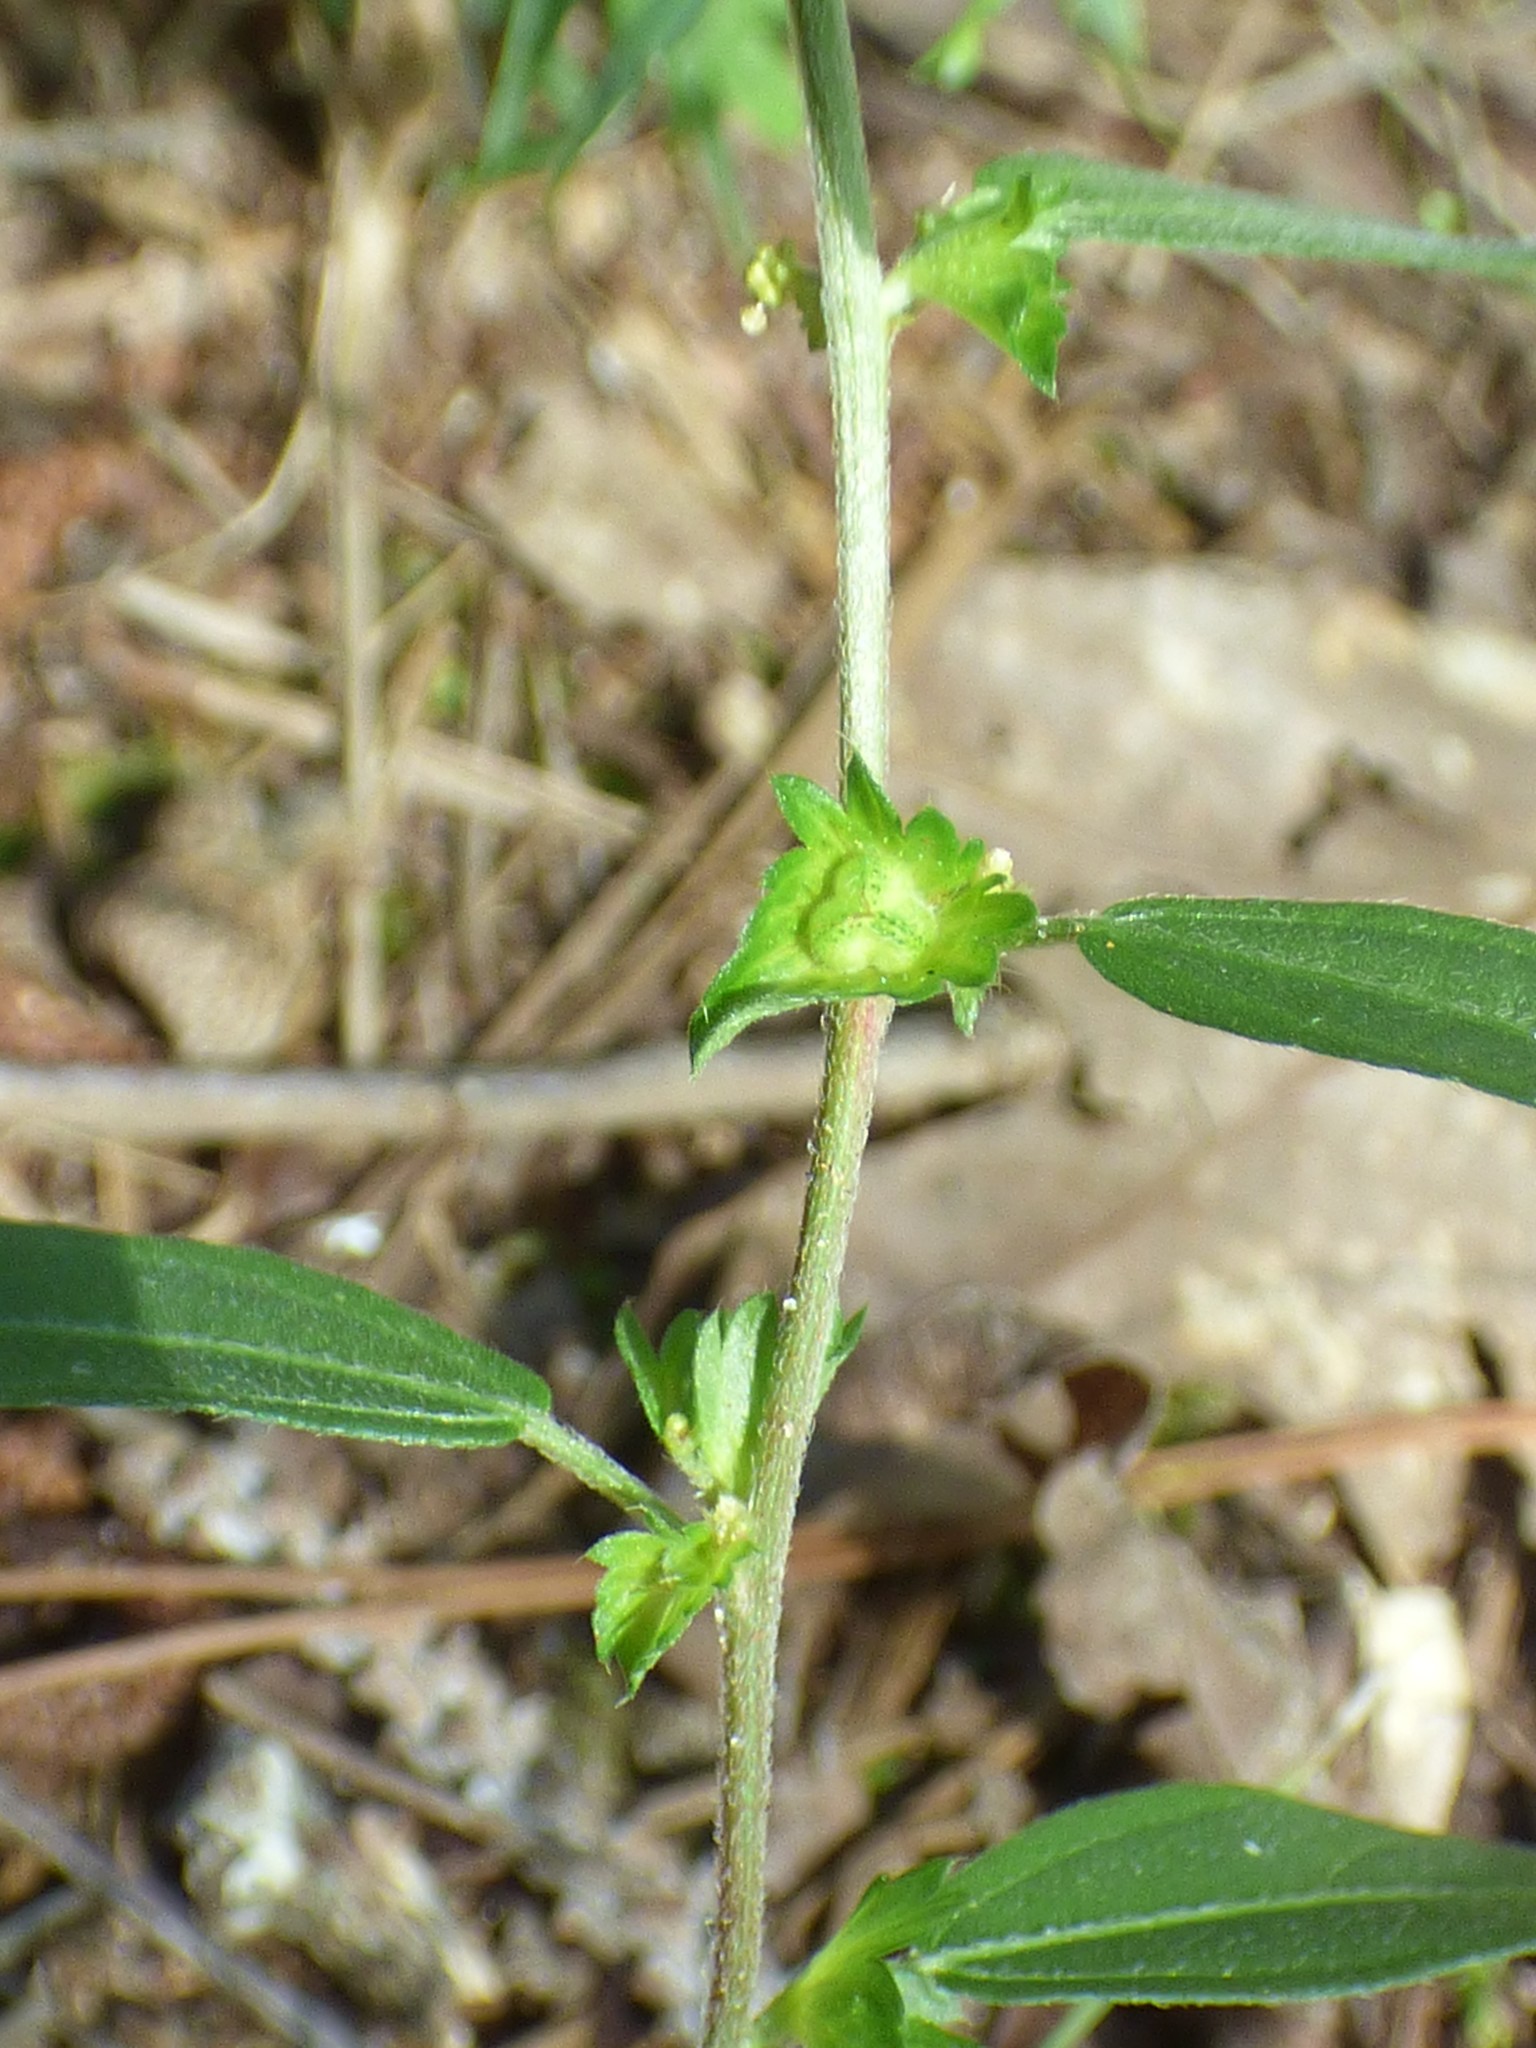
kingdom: Plantae
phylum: Tracheophyta
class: Magnoliopsida
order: Malpighiales
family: Euphorbiaceae
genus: Acalypha
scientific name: Acalypha gracilens
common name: Slender three-seeded mercury
